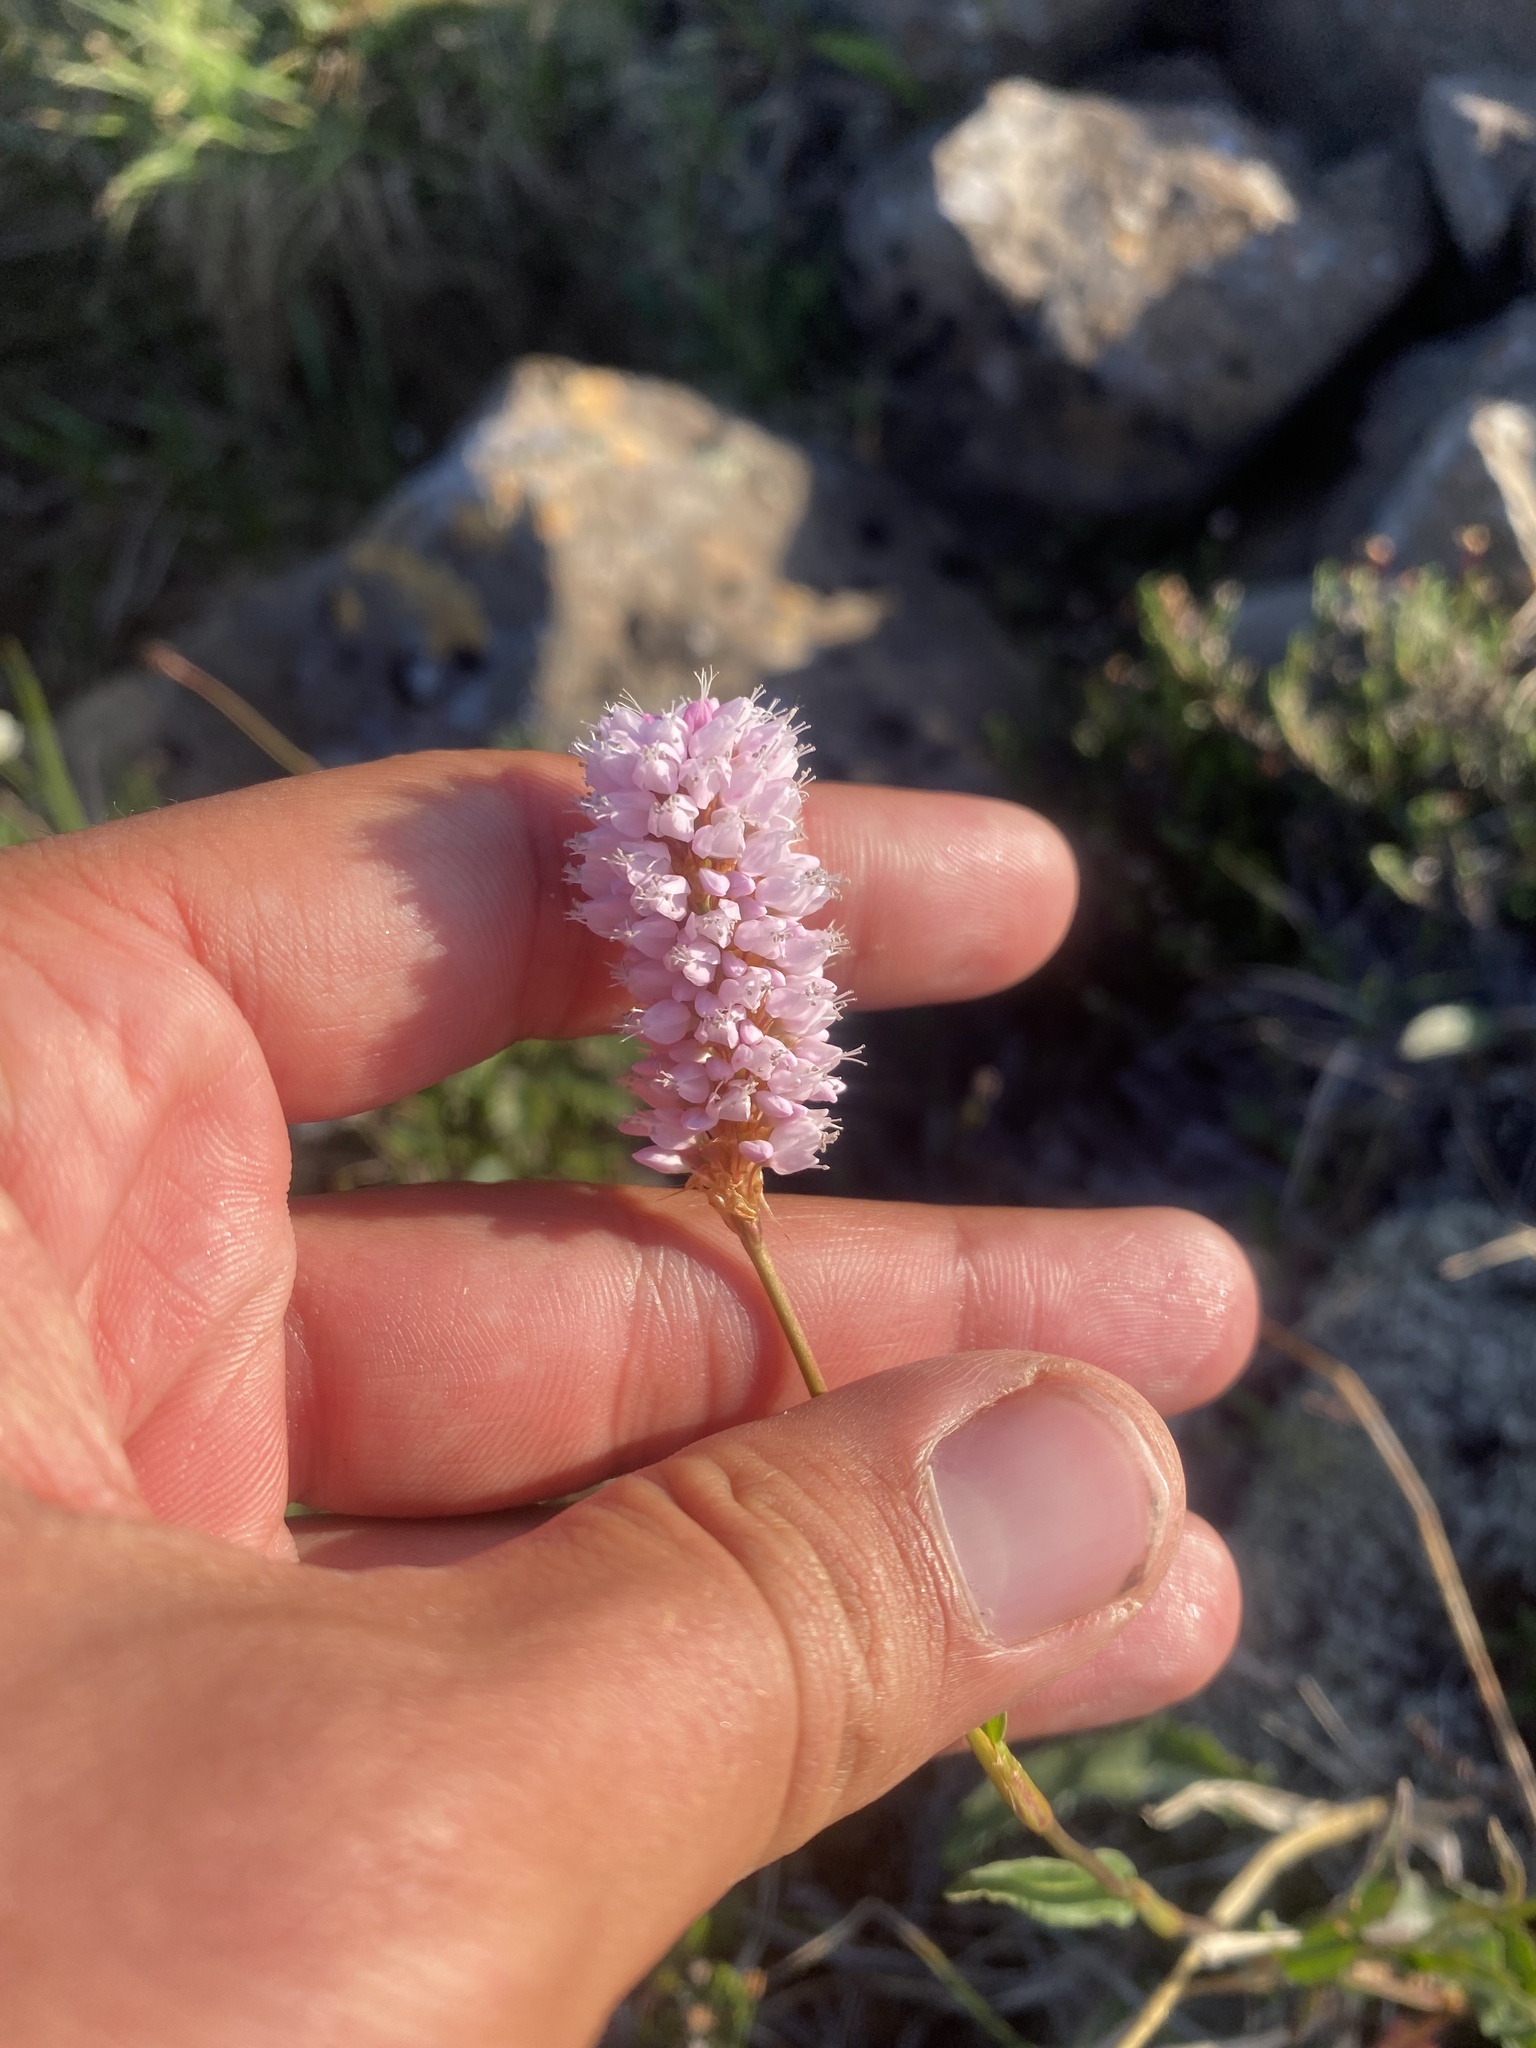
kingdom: Plantae
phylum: Tracheophyta
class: Magnoliopsida
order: Caryophyllales
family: Polygonaceae
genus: Bistorta
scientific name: Bistorta officinalis
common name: Common bistort
